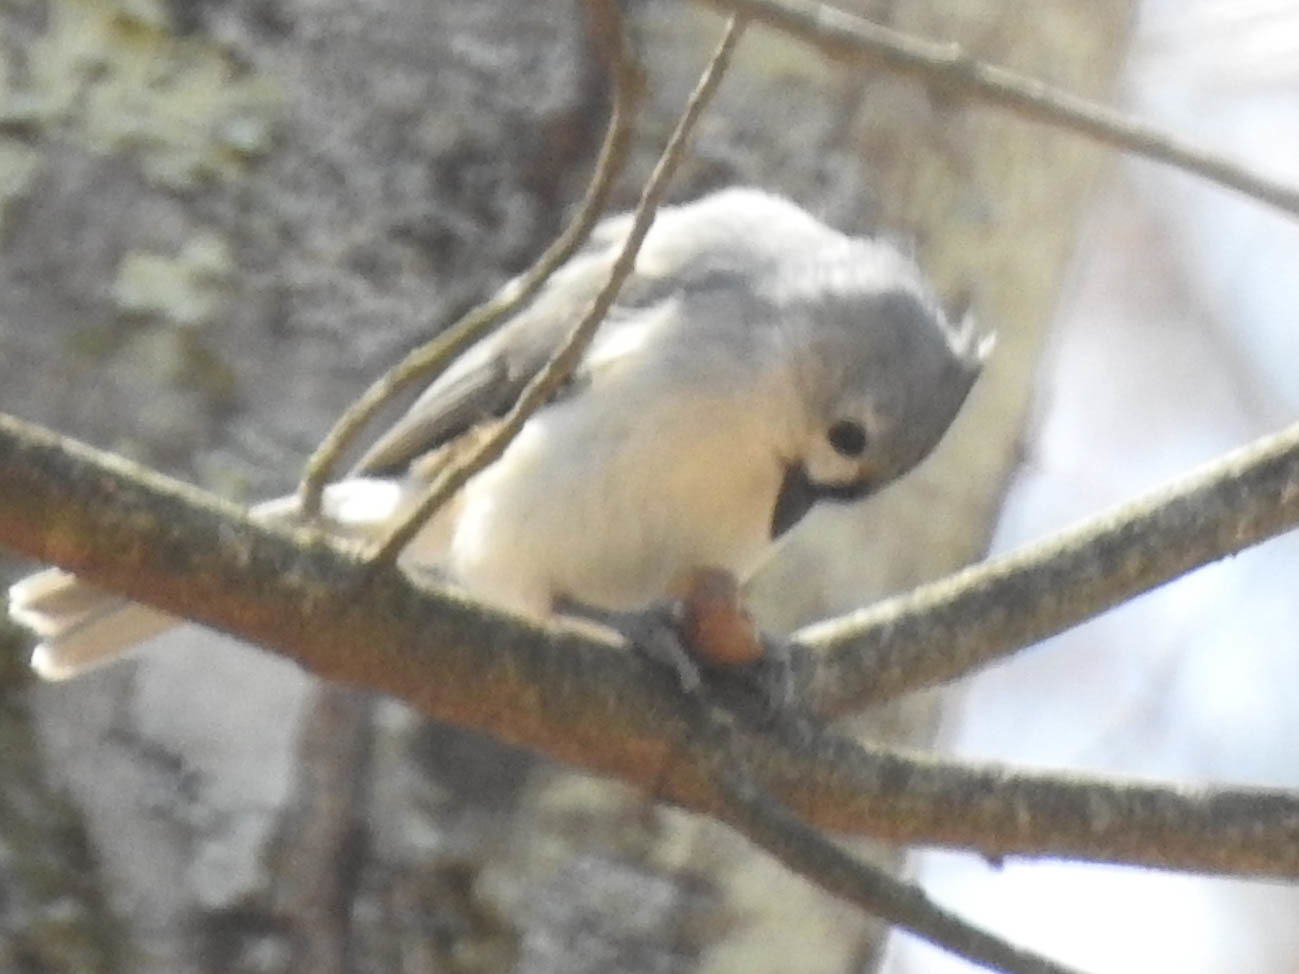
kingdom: Animalia
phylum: Chordata
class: Aves
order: Passeriformes
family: Paridae
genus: Baeolophus
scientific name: Baeolophus bicolor
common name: Tufted titmouse
